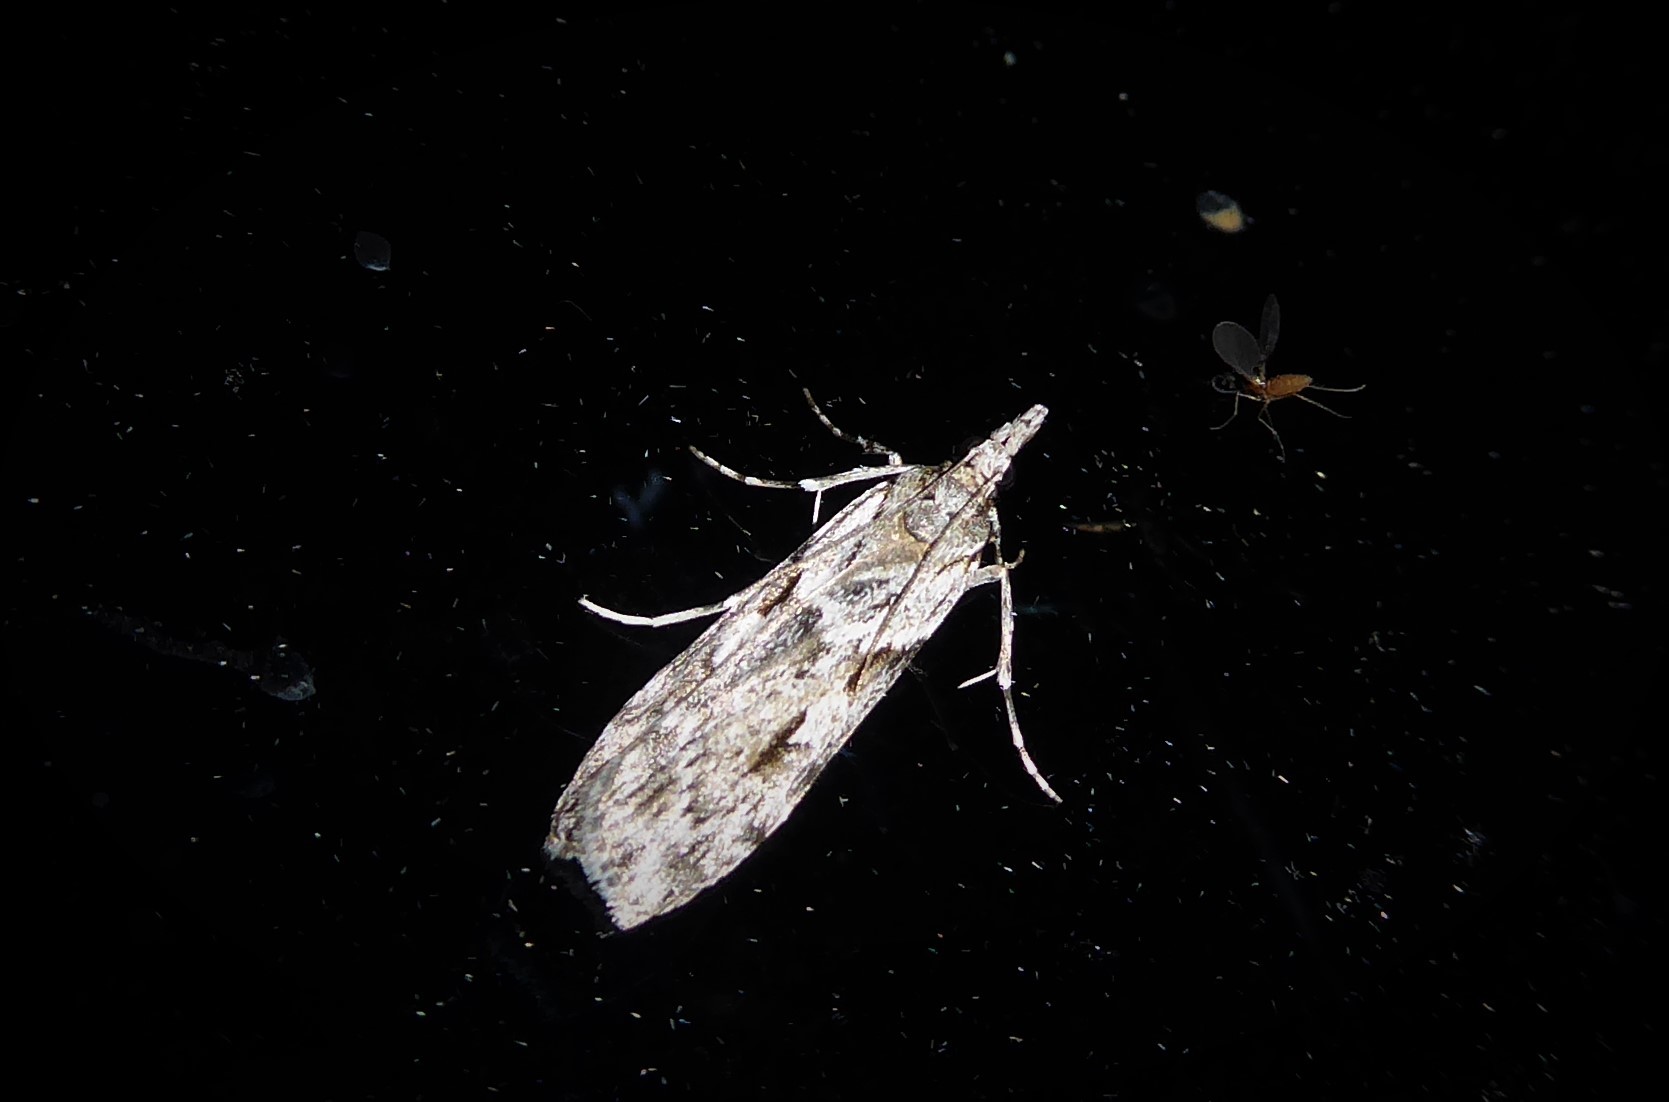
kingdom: Animalia
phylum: Arthropoda
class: Insecta
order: Lepidoptera
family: Crambidae
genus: Scoparia
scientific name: Scoparia halopis
